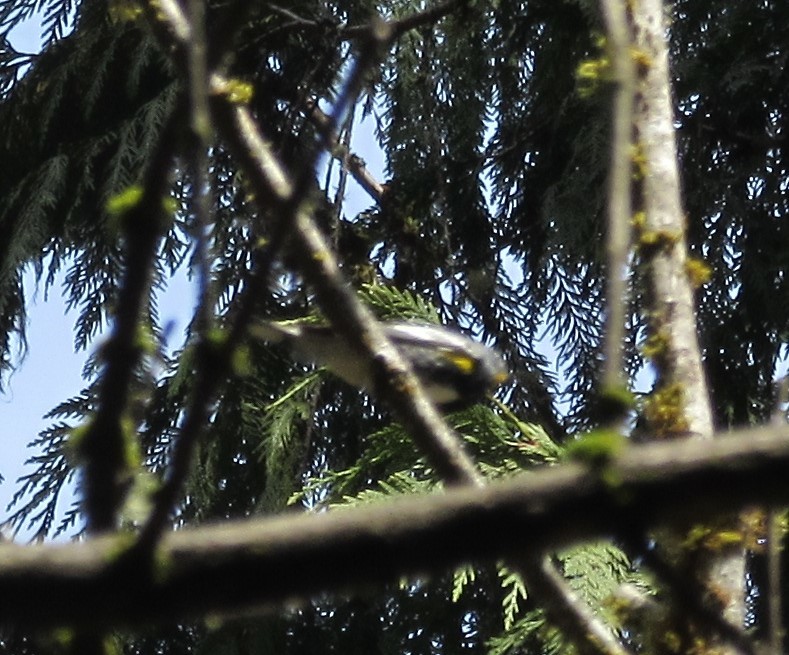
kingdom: Animalia
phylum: Chordata
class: Aves
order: Passeriformes
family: Parulidae
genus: Setophaga
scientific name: Setophaga coronata
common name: Myrtle warbler
